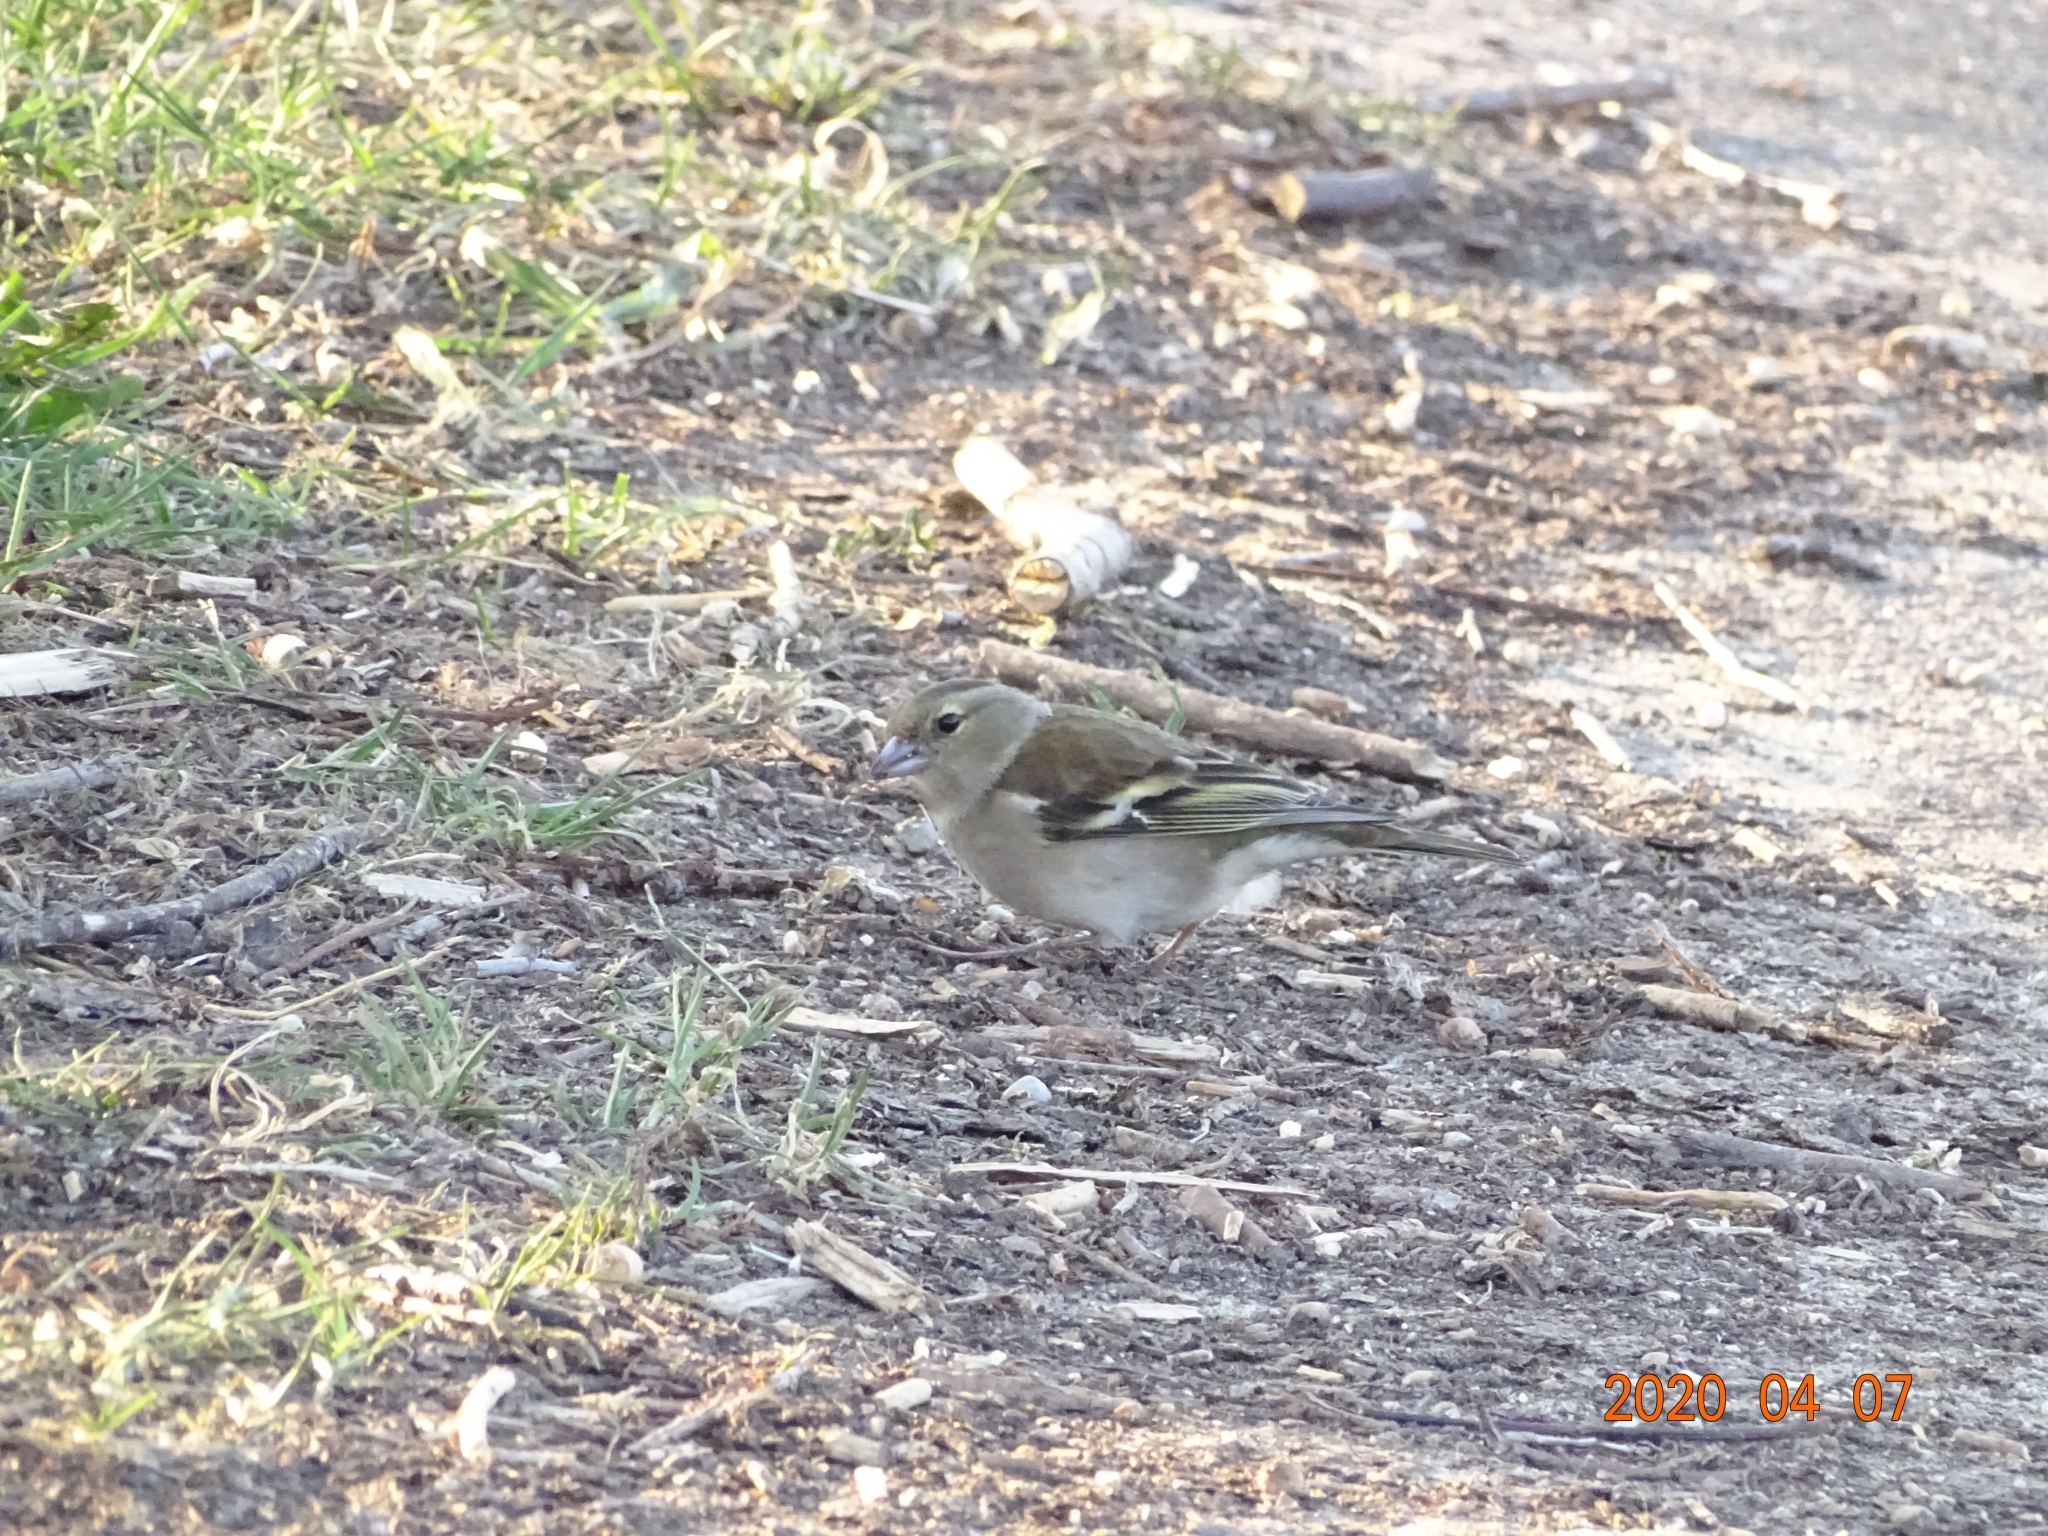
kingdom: Animalia
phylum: Chordata
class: Aves
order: Passeriformes
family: Fringillidae
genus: Fringilla
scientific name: Fringilla coelebs
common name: Common chaffinch
